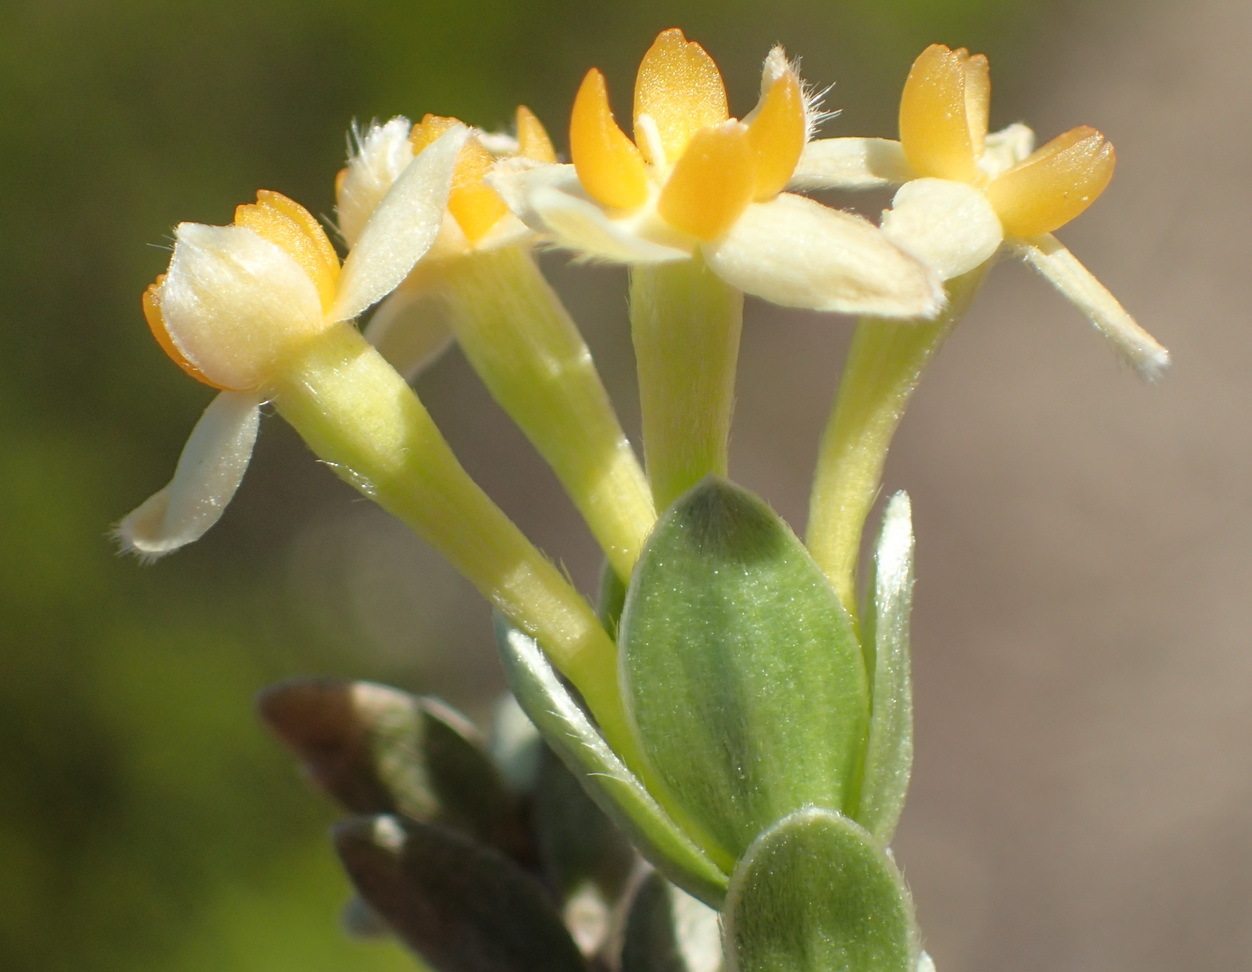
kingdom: Plantae
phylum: Tracheophyta
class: Magnoliopsida
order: Malvales
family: Thymelaeaceae
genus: Gnidia
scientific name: Gnidia chrysophylla
